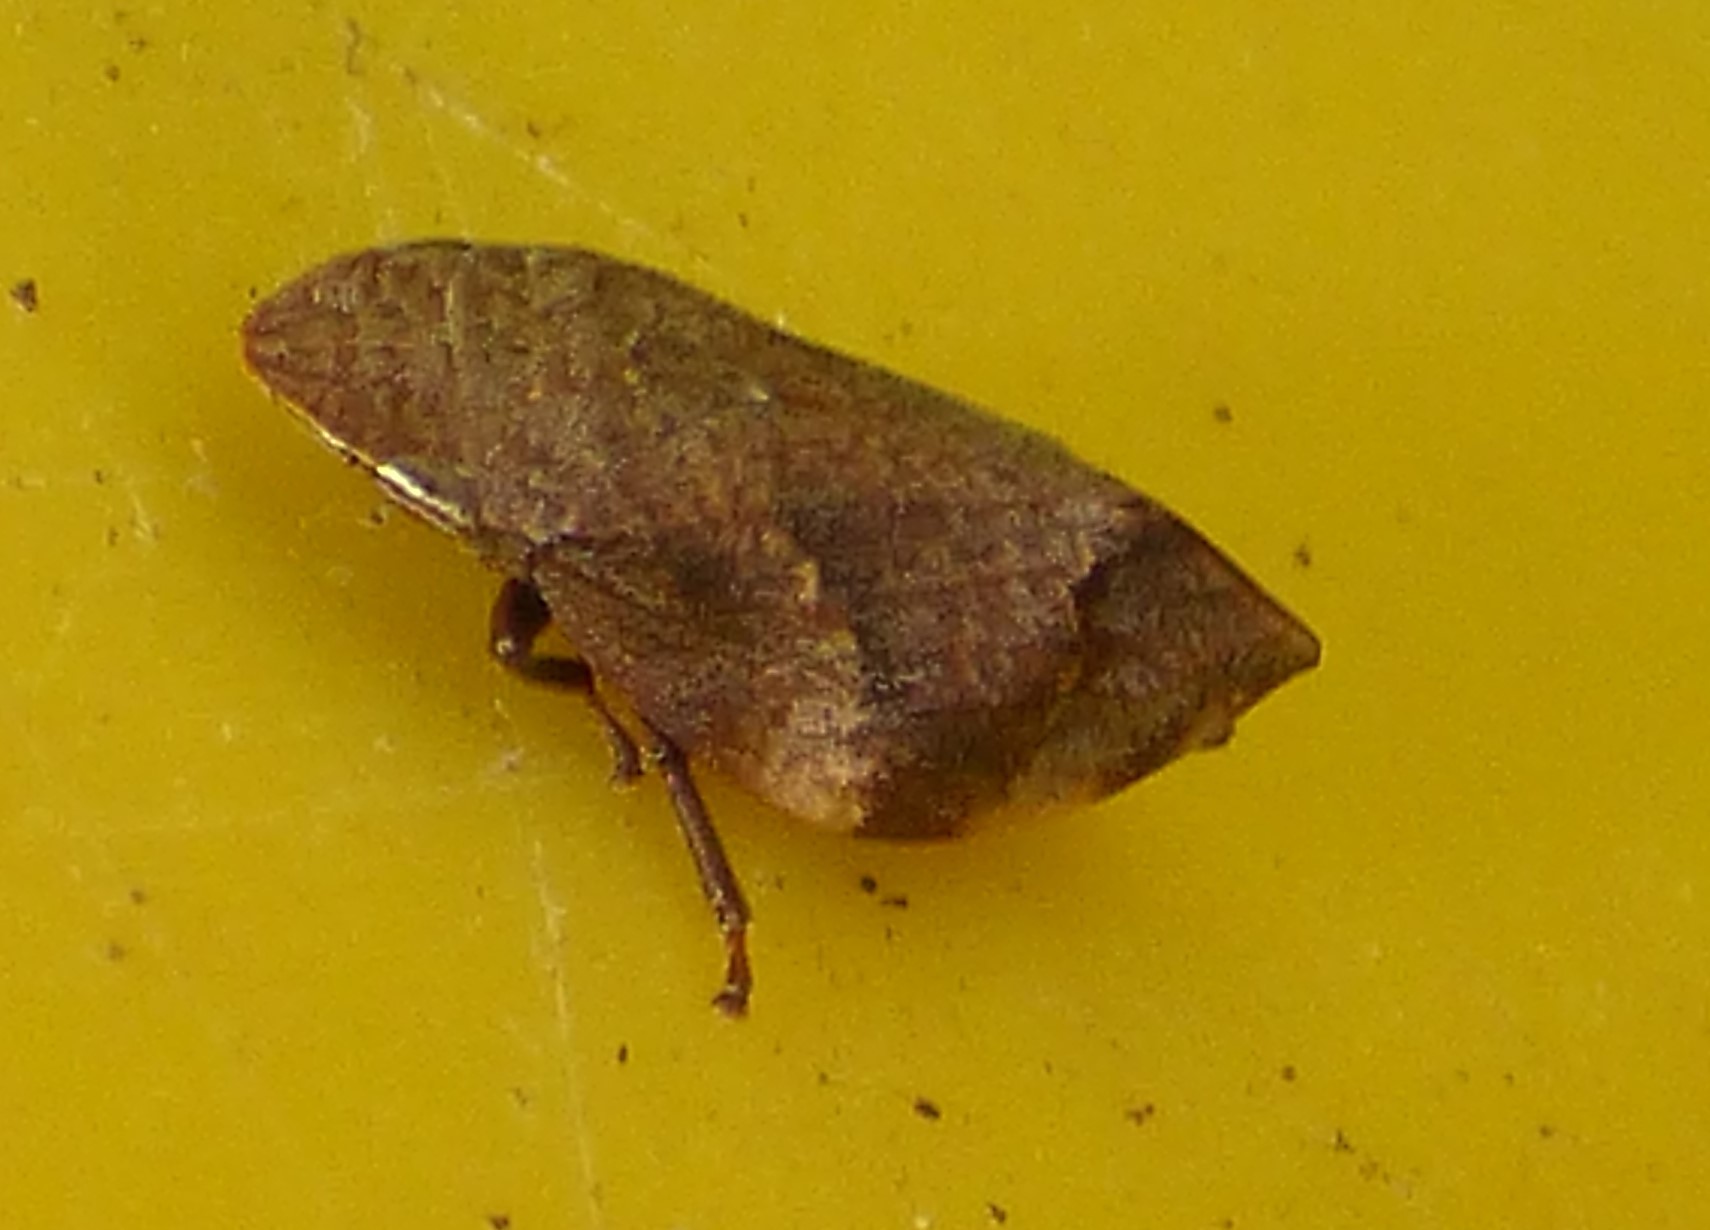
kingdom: Animalia
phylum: Arthropoda
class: Insecta
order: Hemiptera
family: Aphrophoridae
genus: Lepyronia
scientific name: Lepyronia quadrangularis
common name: Diamond-backed spittlebug
